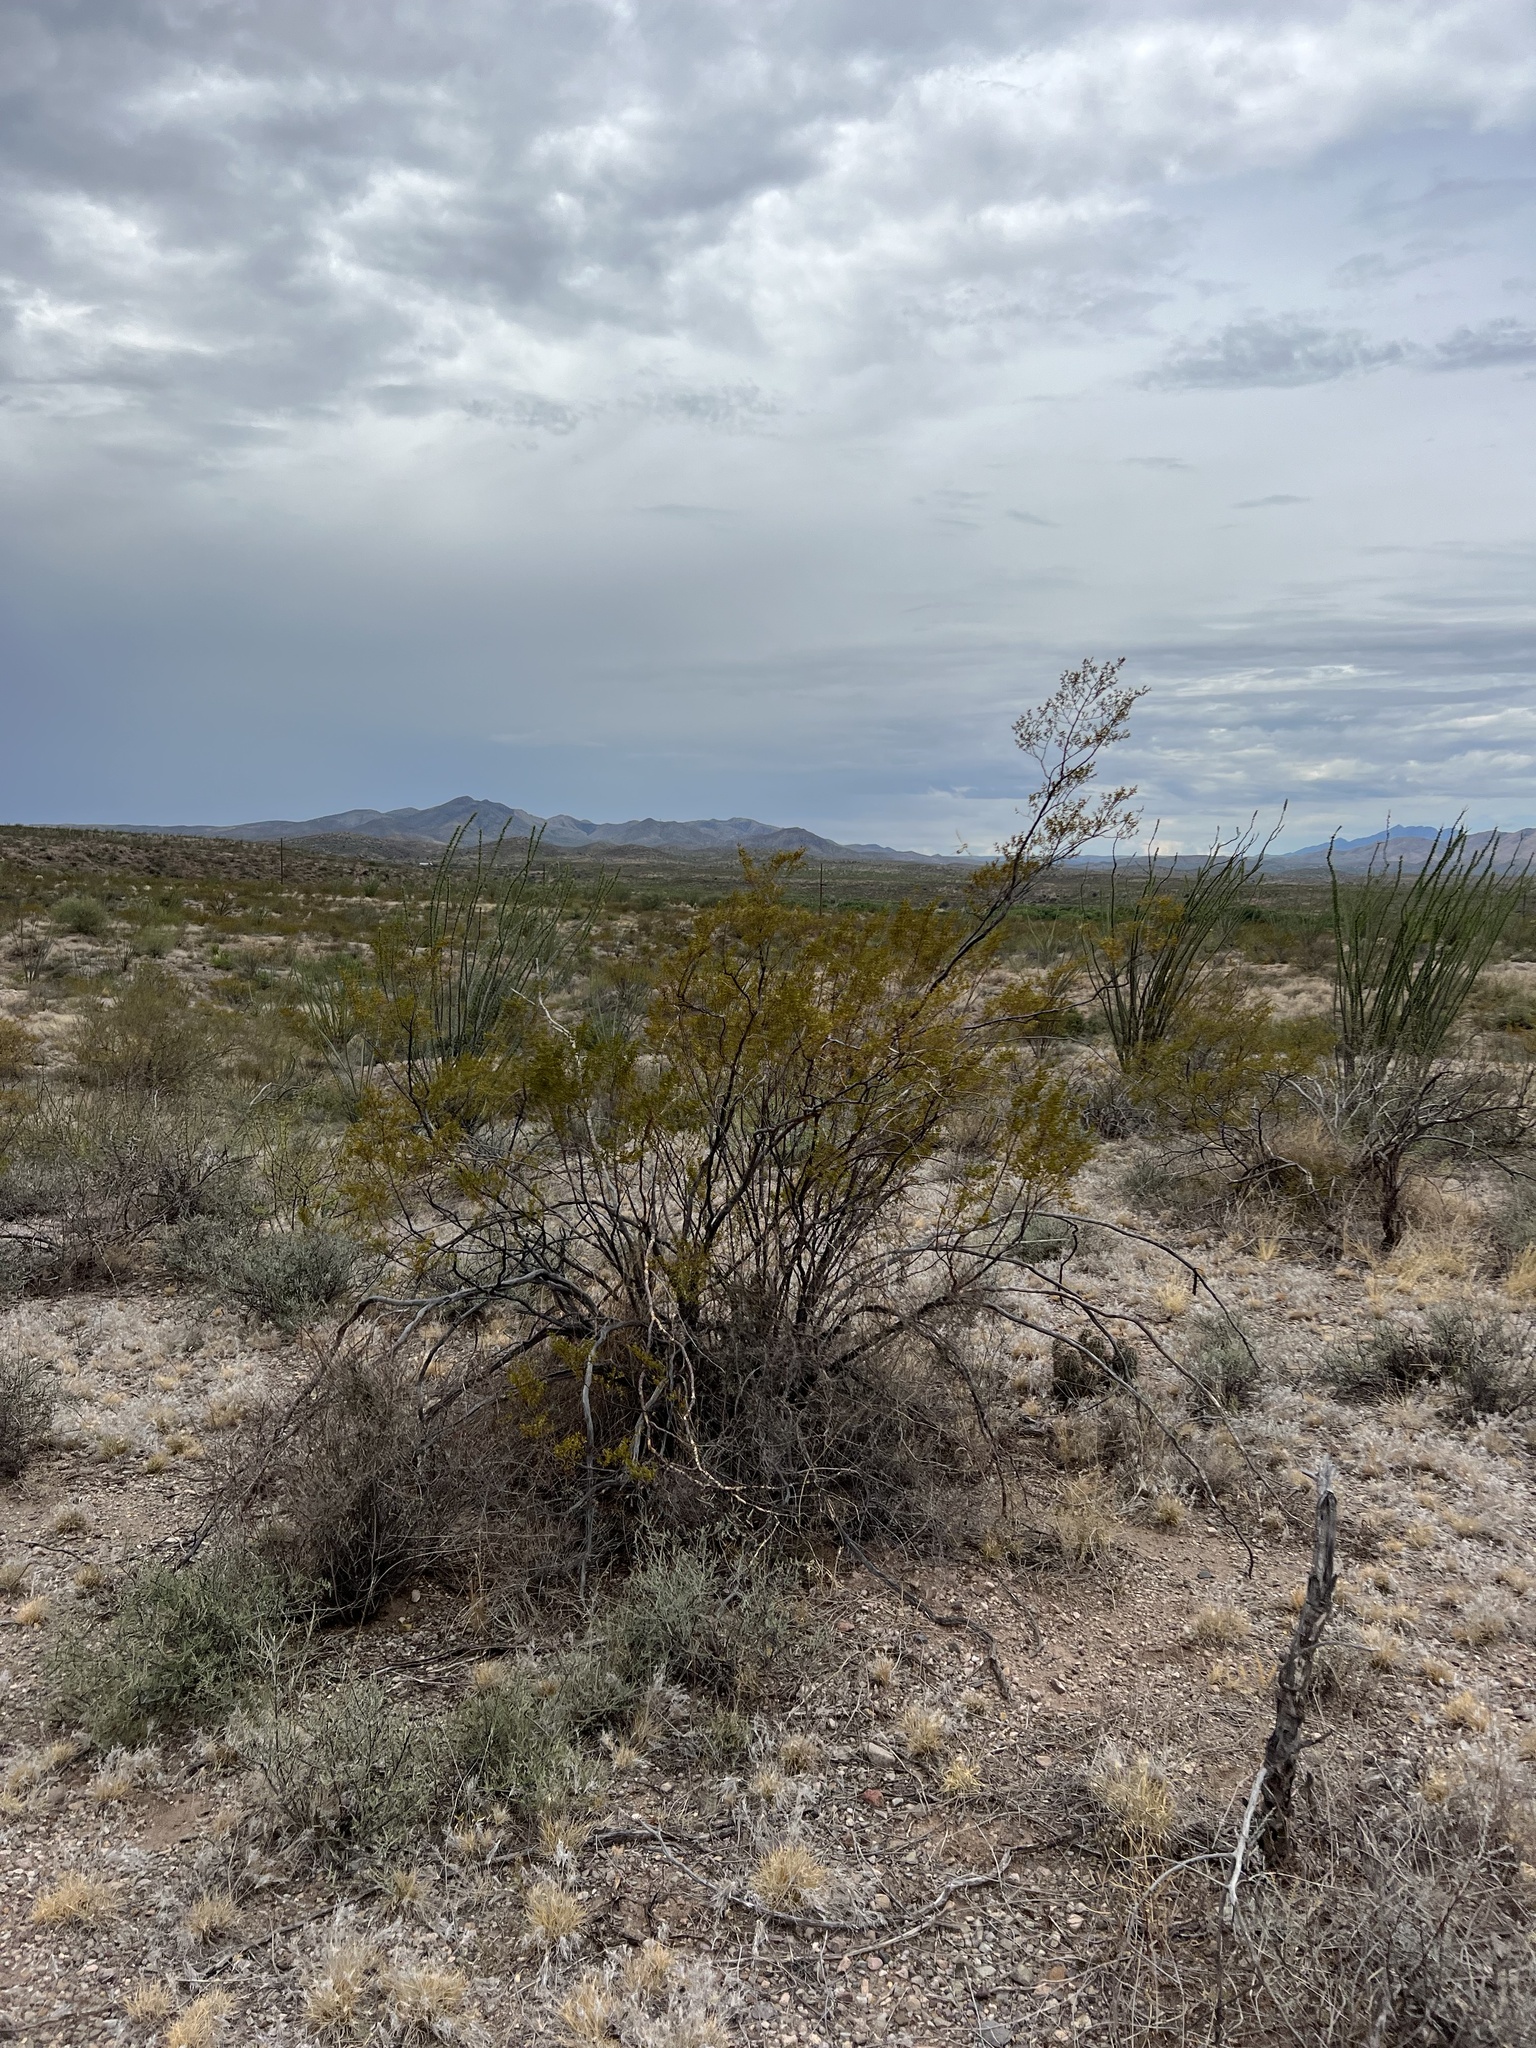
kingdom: Plantae
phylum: Tracheophyta
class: Magnoliopsida
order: Zygophyllales
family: Zygophyllaceae
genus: Larrea
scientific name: Larrea tridentata
